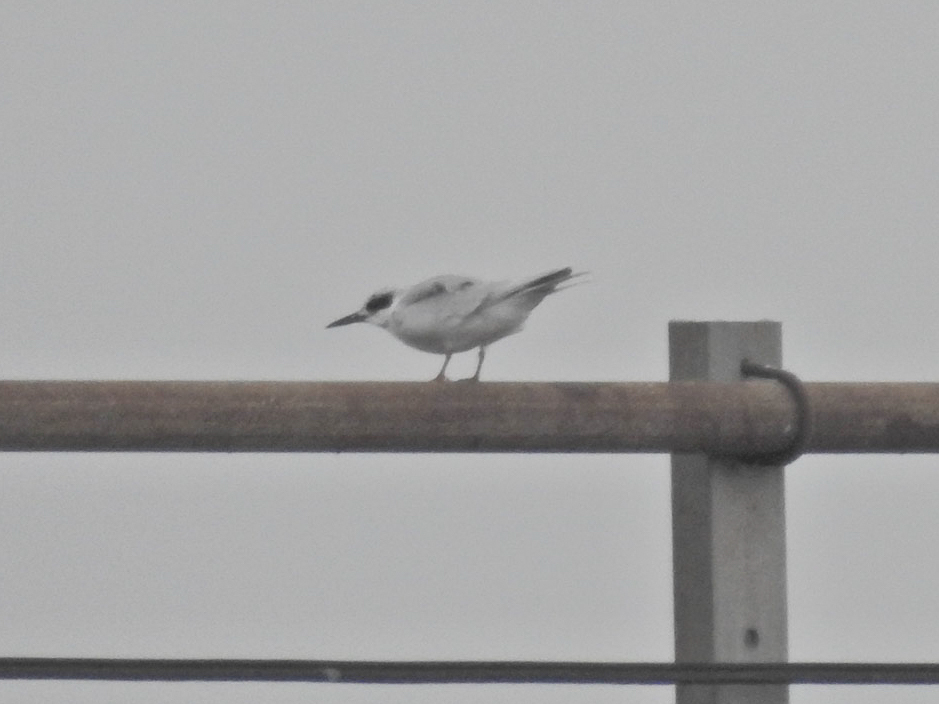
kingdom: Animalia
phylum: Chordata
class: Aves
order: Charadriiformes
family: Laridae
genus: Sterna
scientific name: Sterna forsteri
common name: Forster's tern
